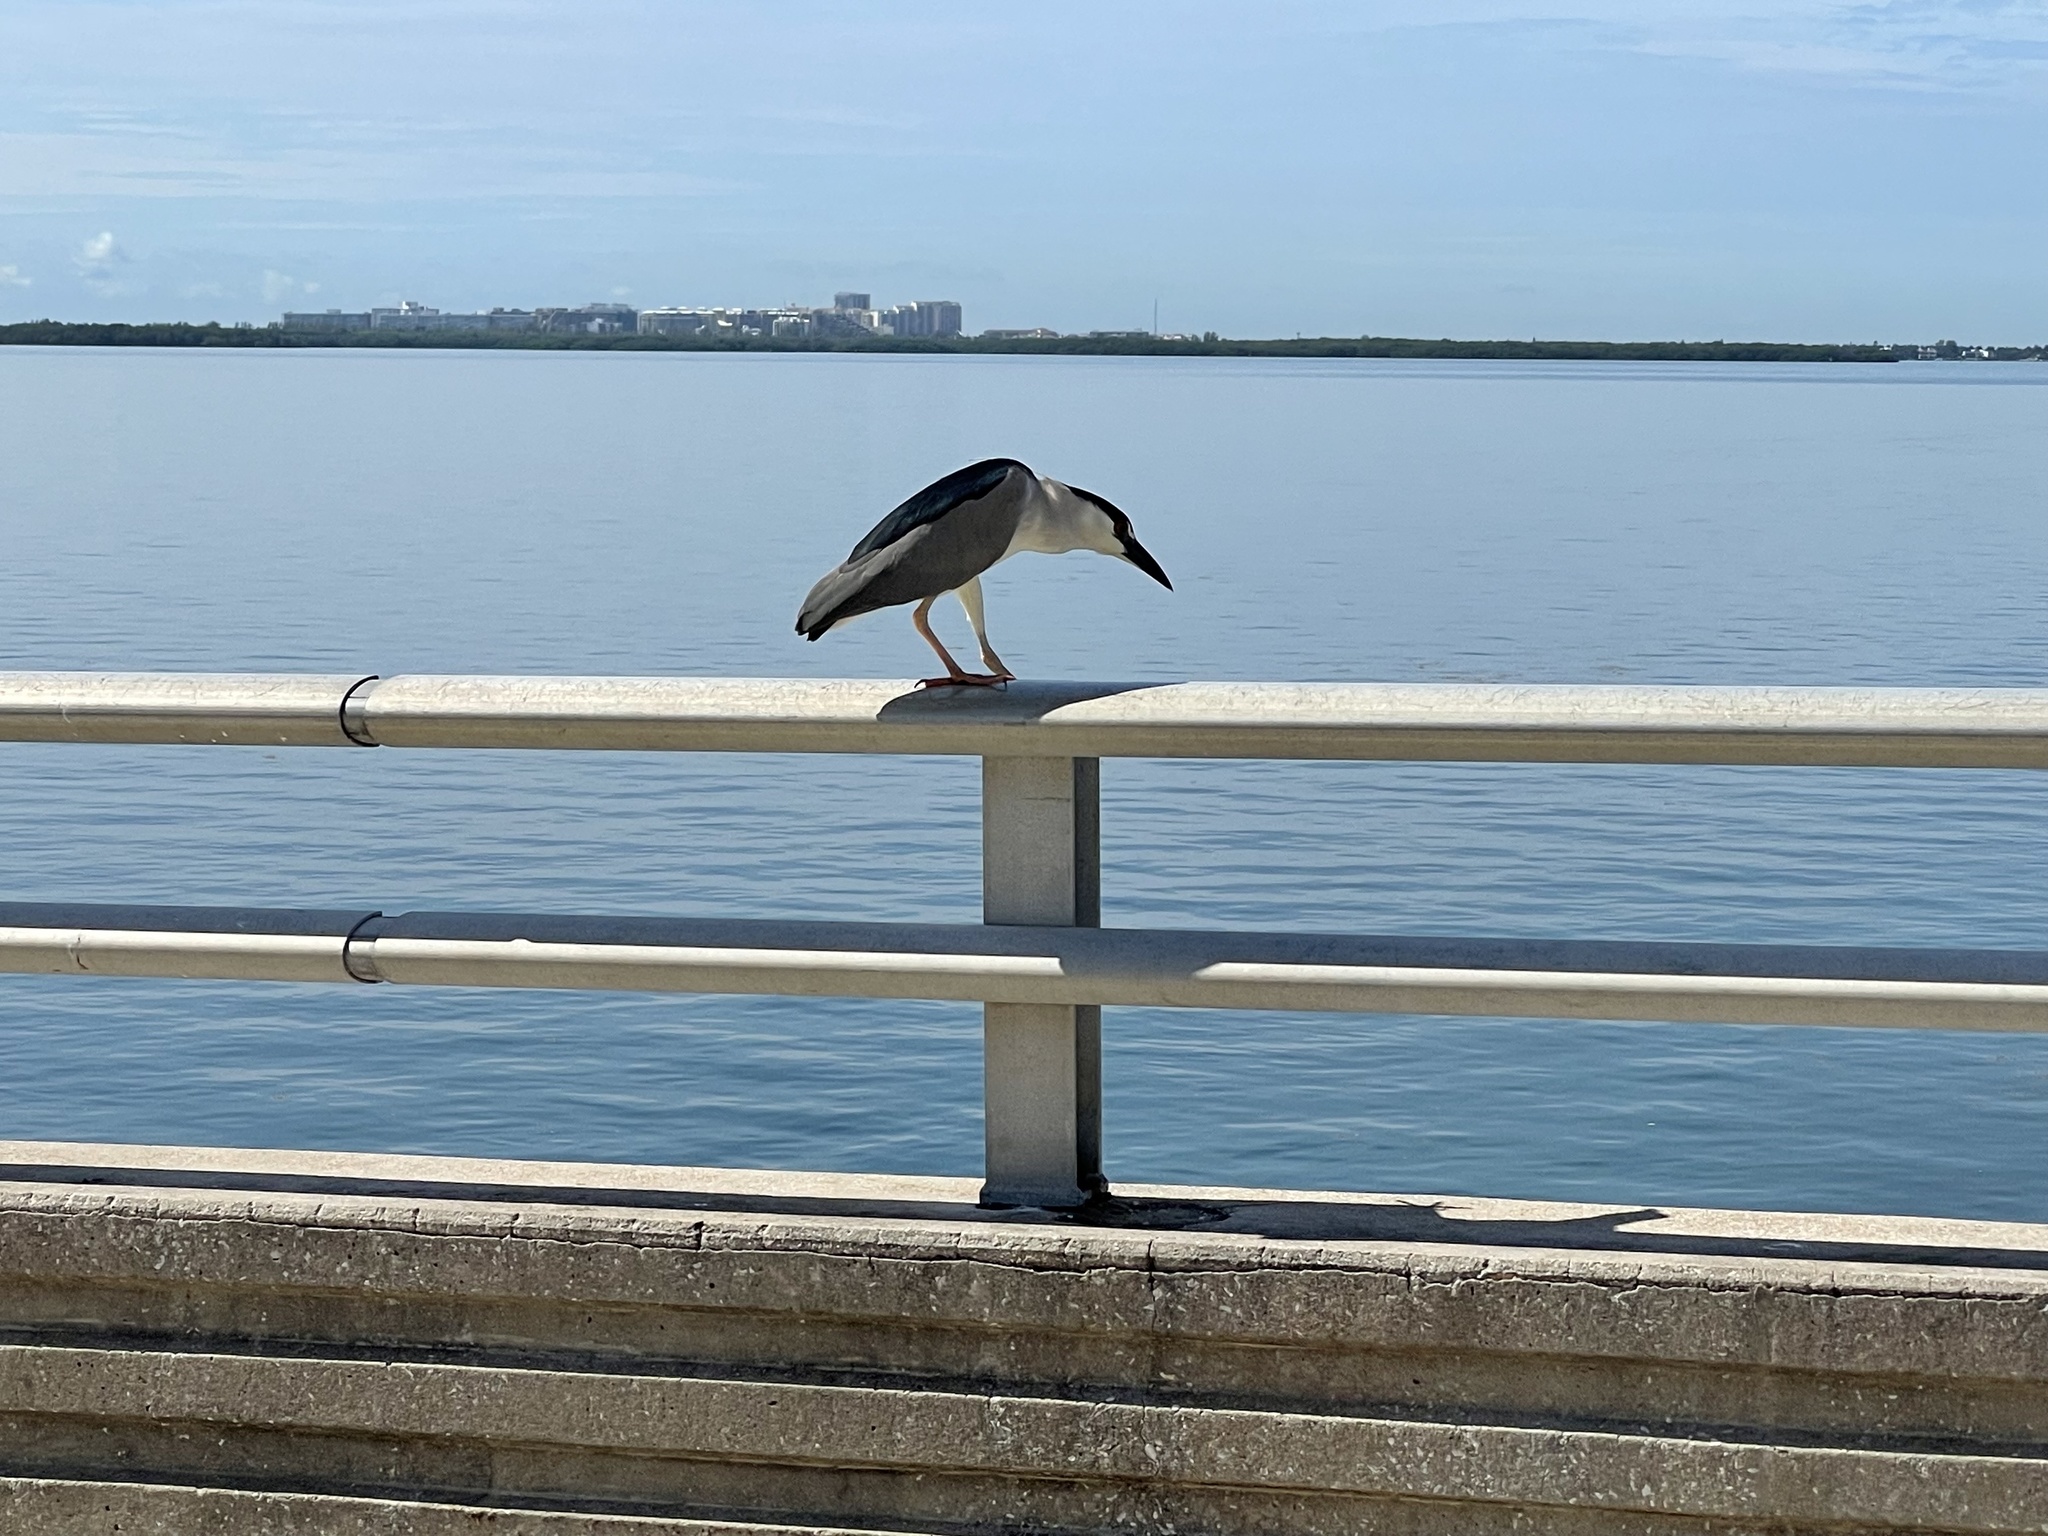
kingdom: Animalia
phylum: Chordata
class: Aves
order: Pelecaniformes
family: Ardeidae
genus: Nycticorax
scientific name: Nycticorax nycticorax
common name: Black-crowned night heron
